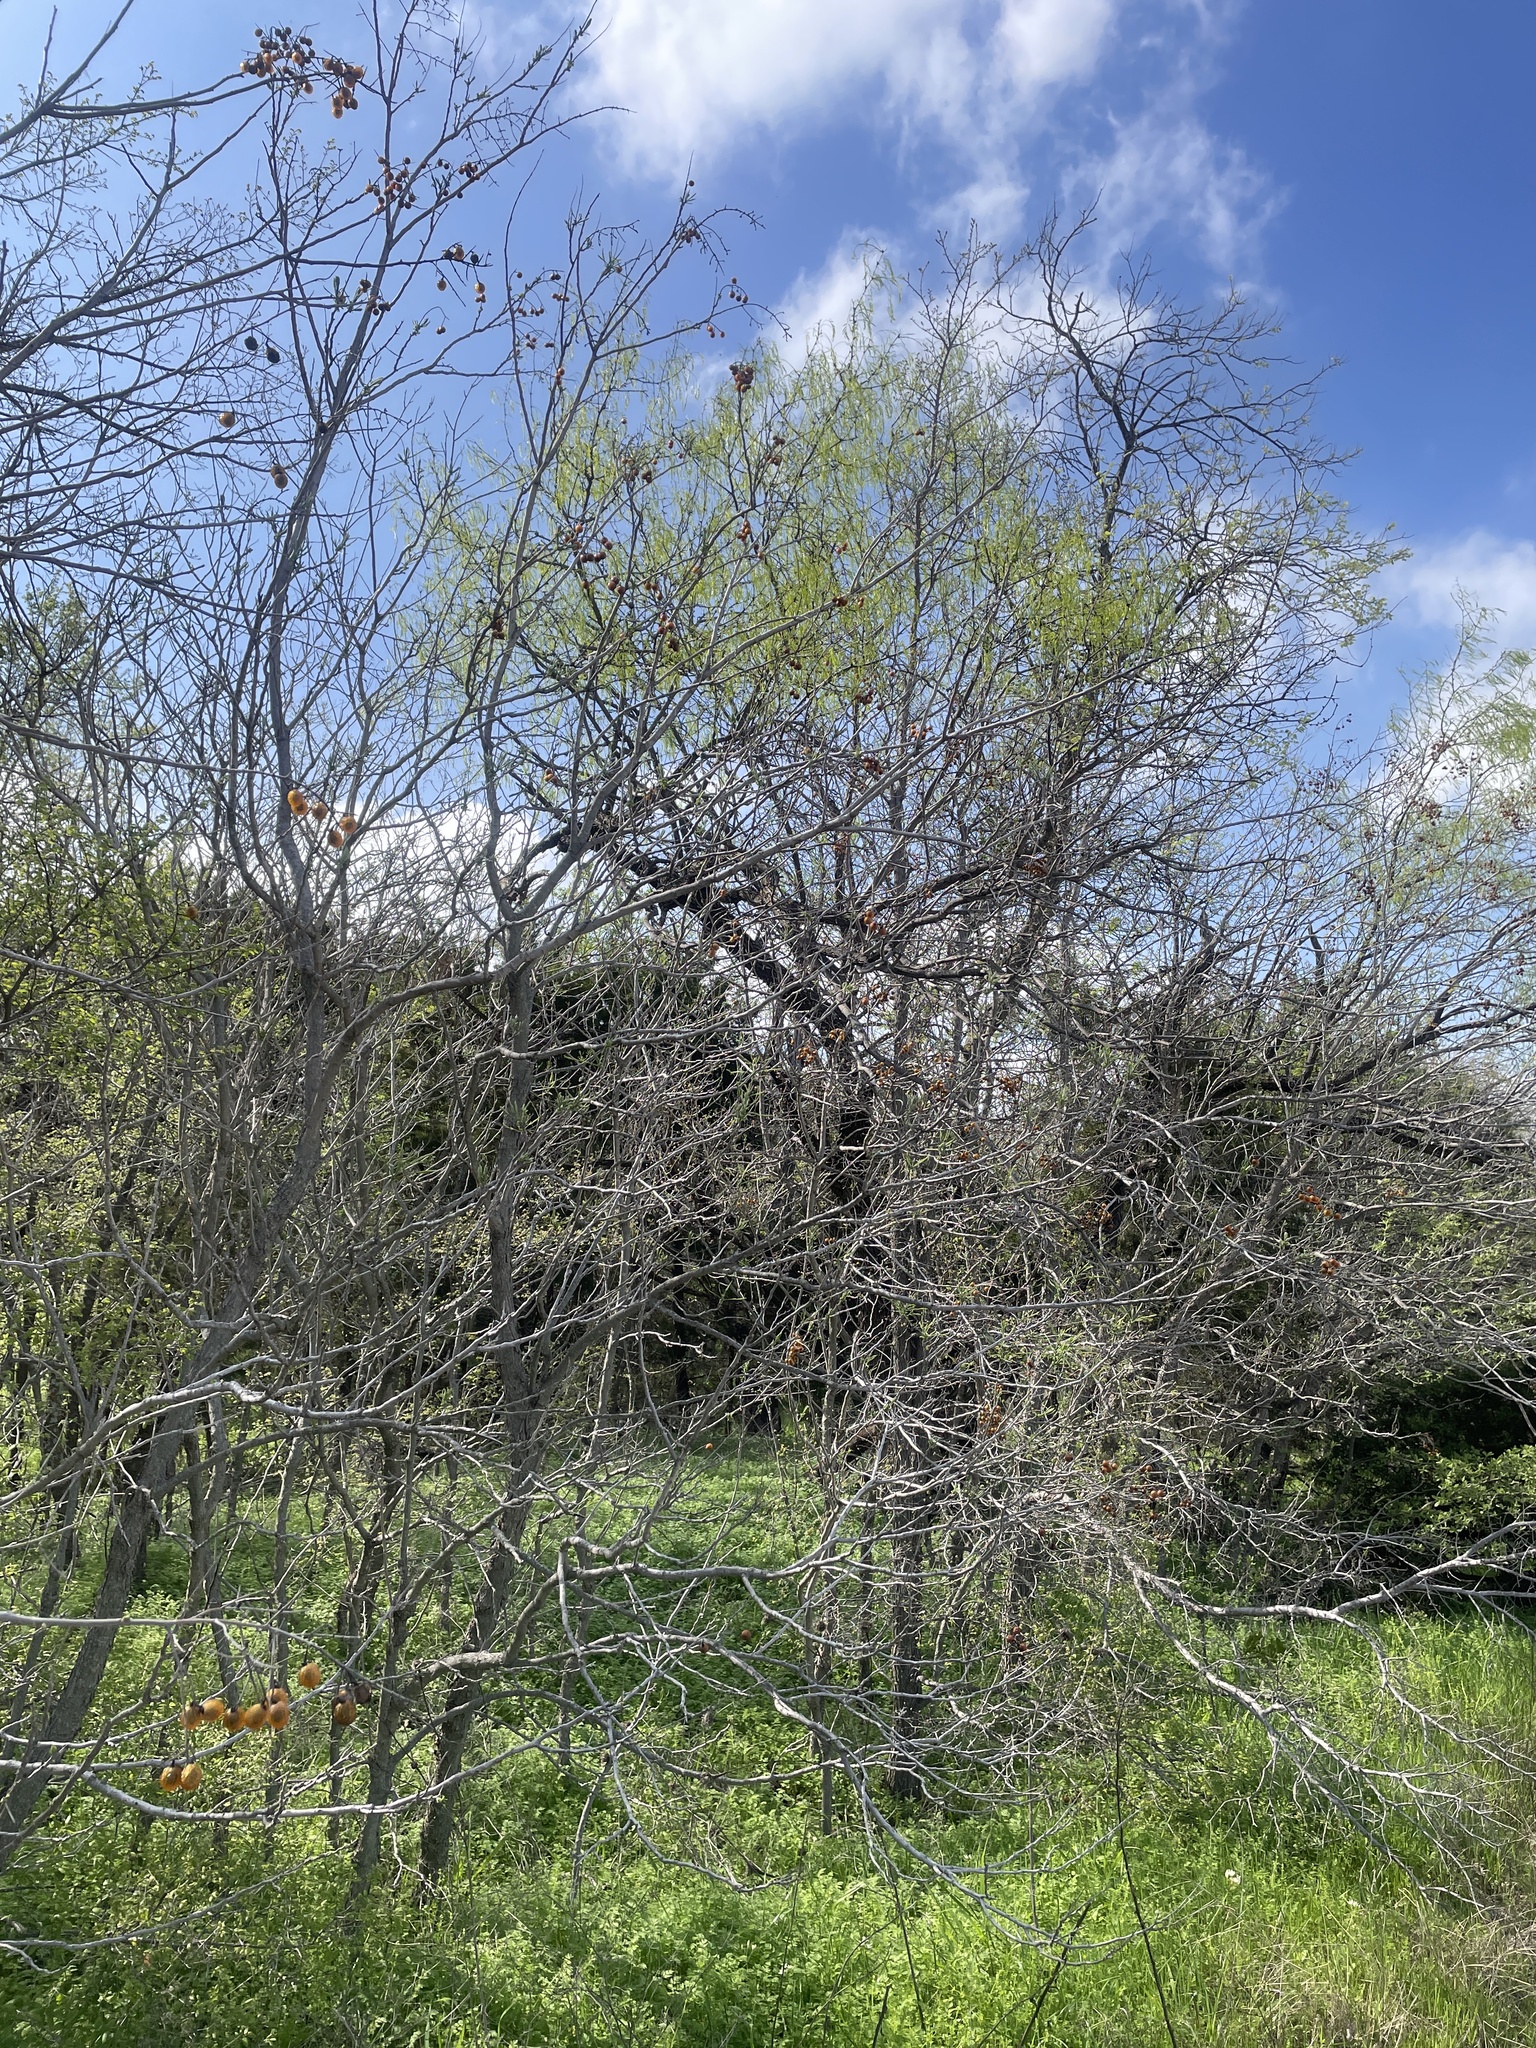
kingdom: Plantae
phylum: Tracheophyta
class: Magnoliopsida
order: Sapindales
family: Sapindaceae
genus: Sapindus
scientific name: Sapindus drummondii
